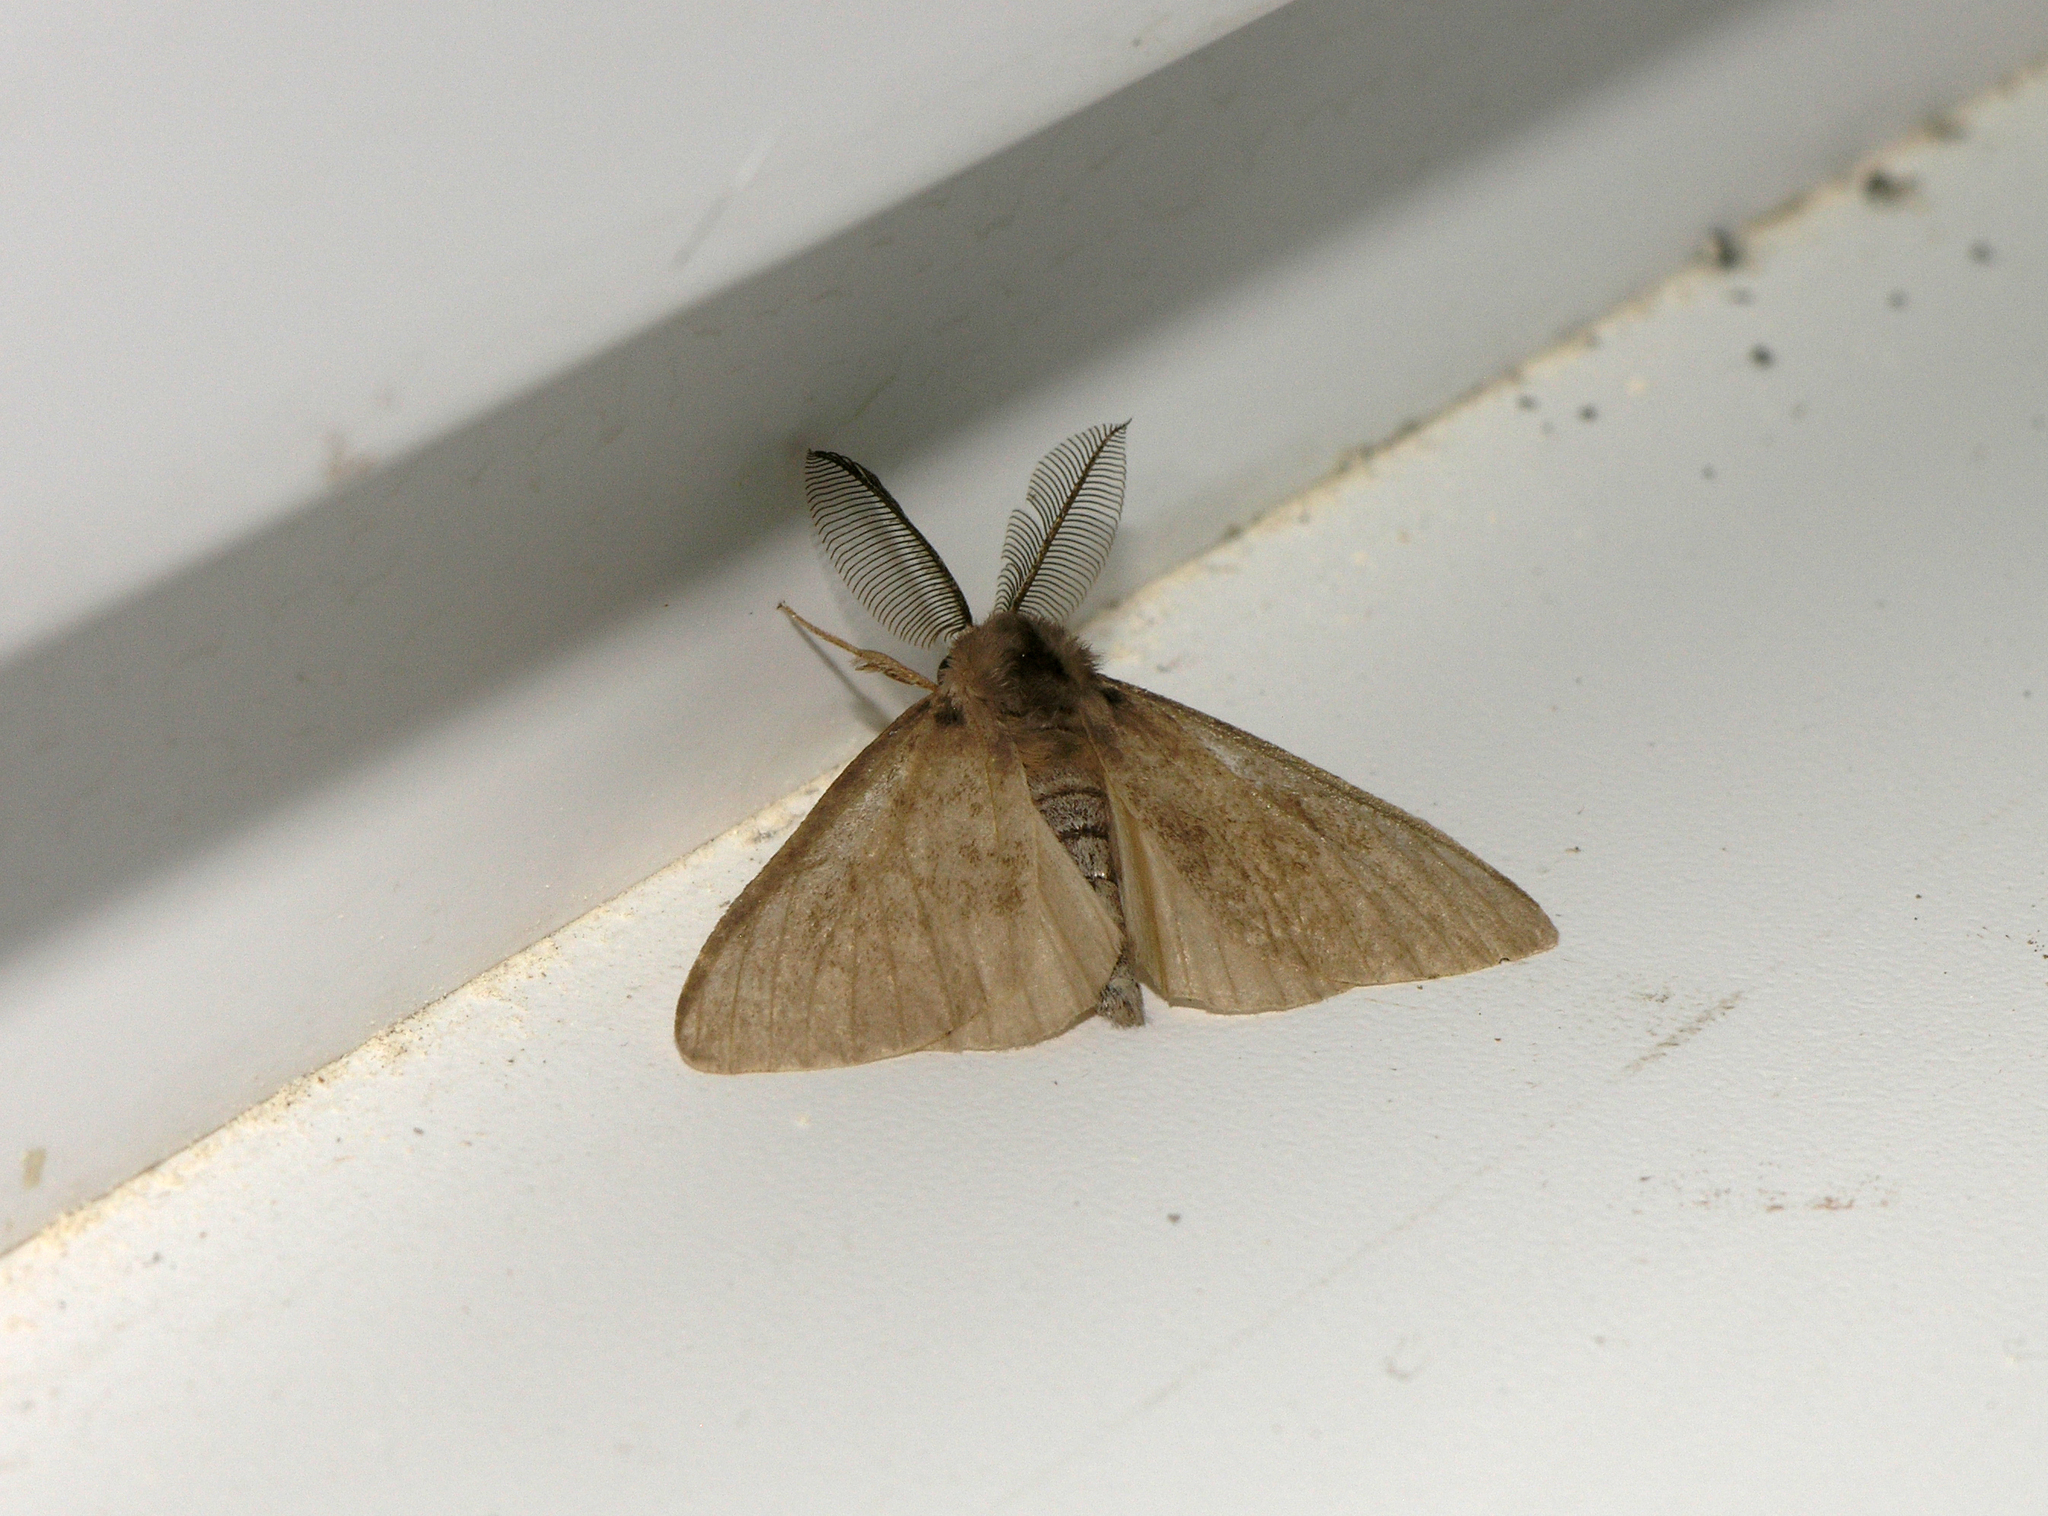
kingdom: Animalia
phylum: Arthropoda
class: Insecta
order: Lepidoptera
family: Erebidae
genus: Lymantria
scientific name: Lymantria monacha
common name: Black arches
